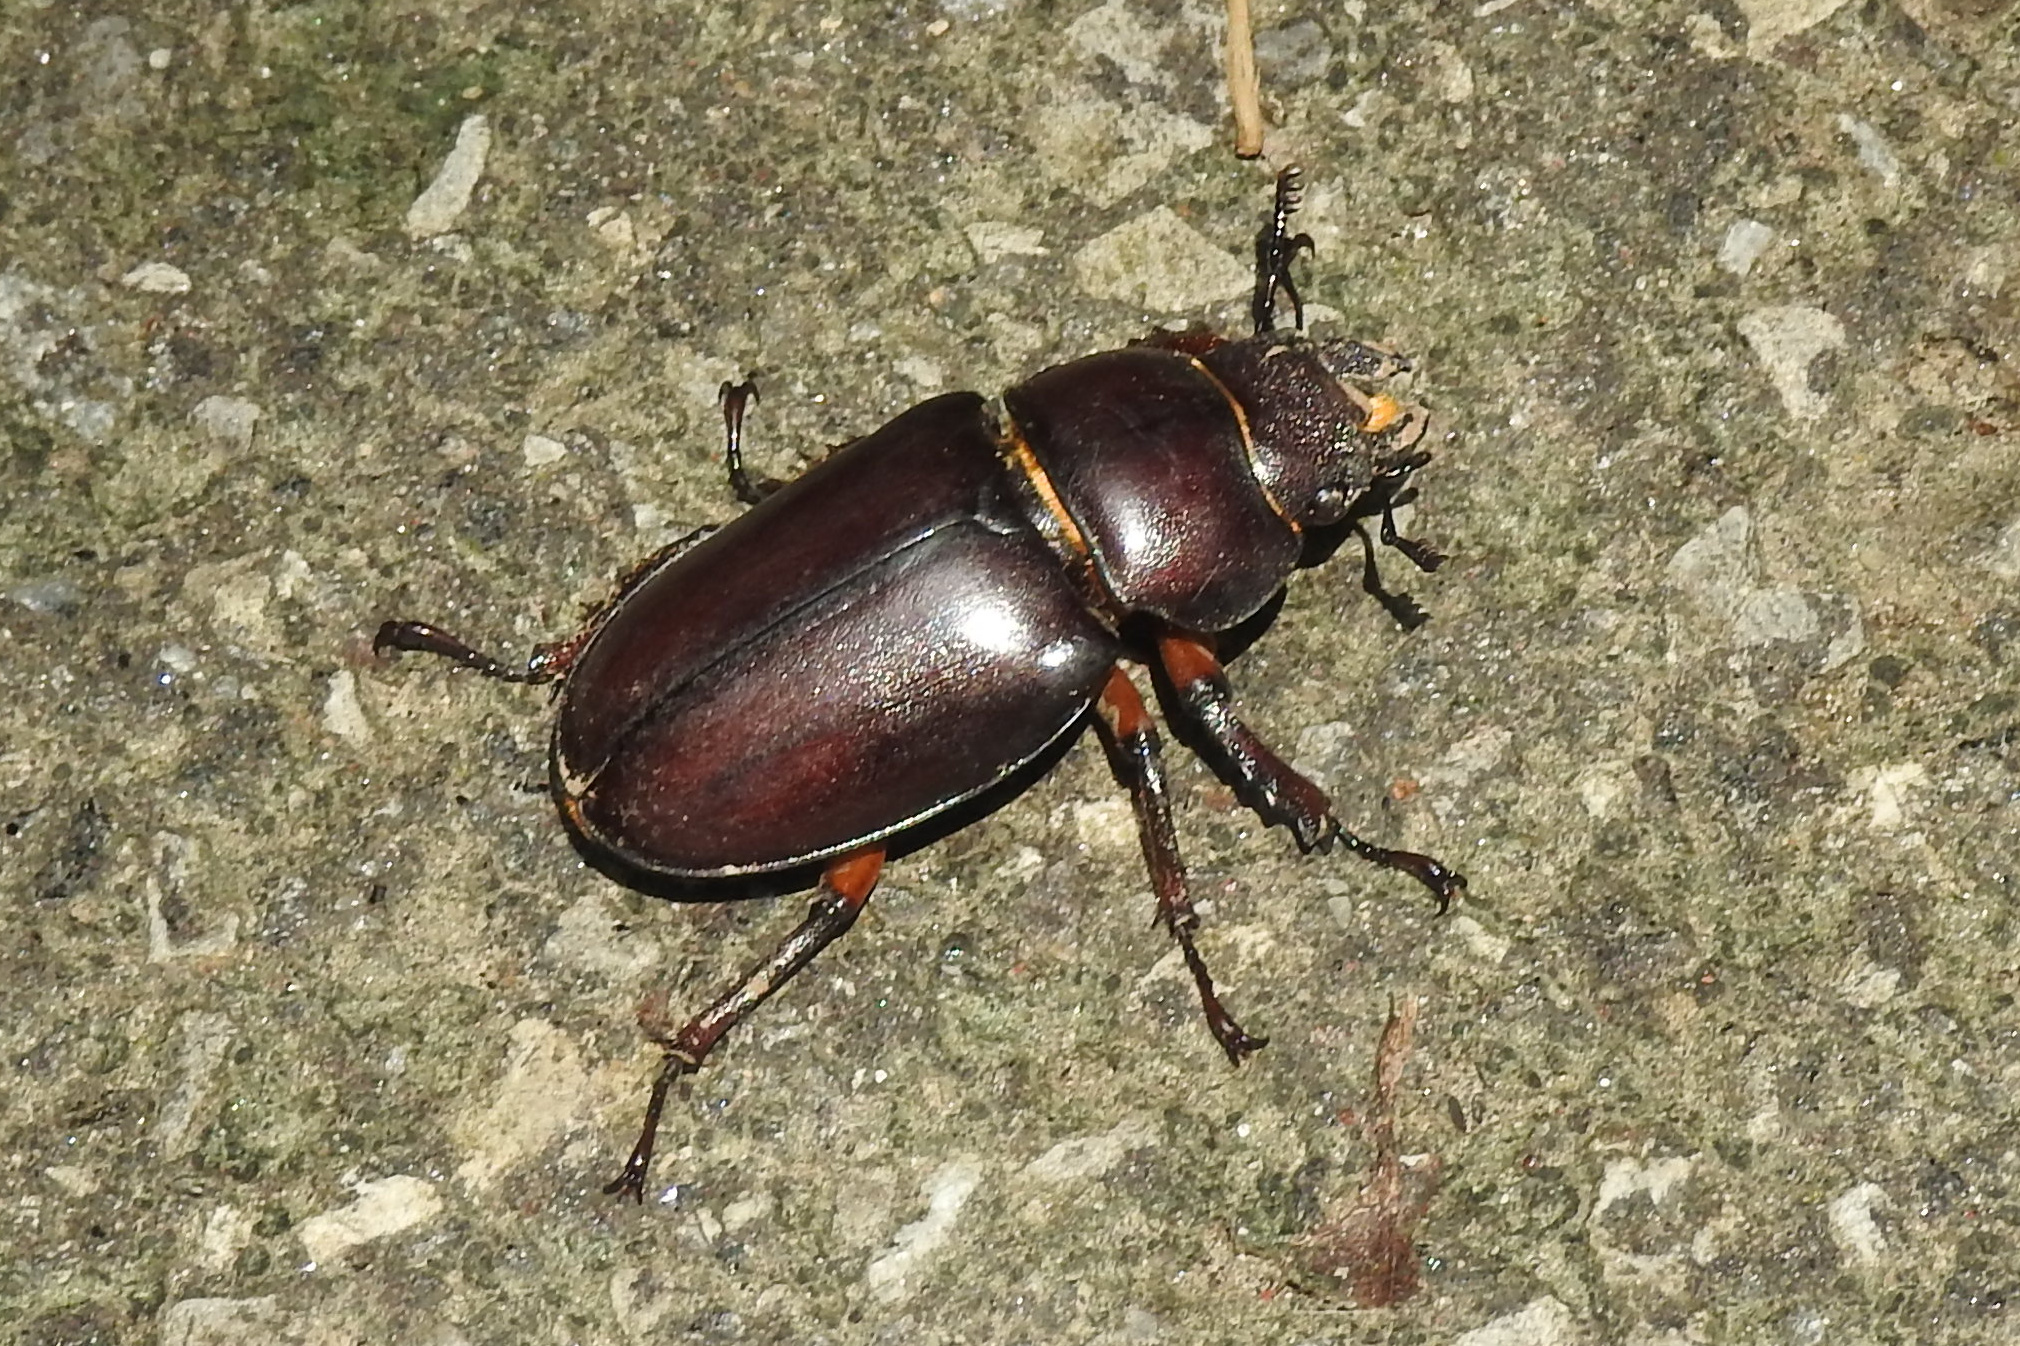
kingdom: Animalia
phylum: Arthropoda
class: Insecta
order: Coleoptera
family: Lucanidae
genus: Lucanus
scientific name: Lucanus capreolus
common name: Stag beetle
